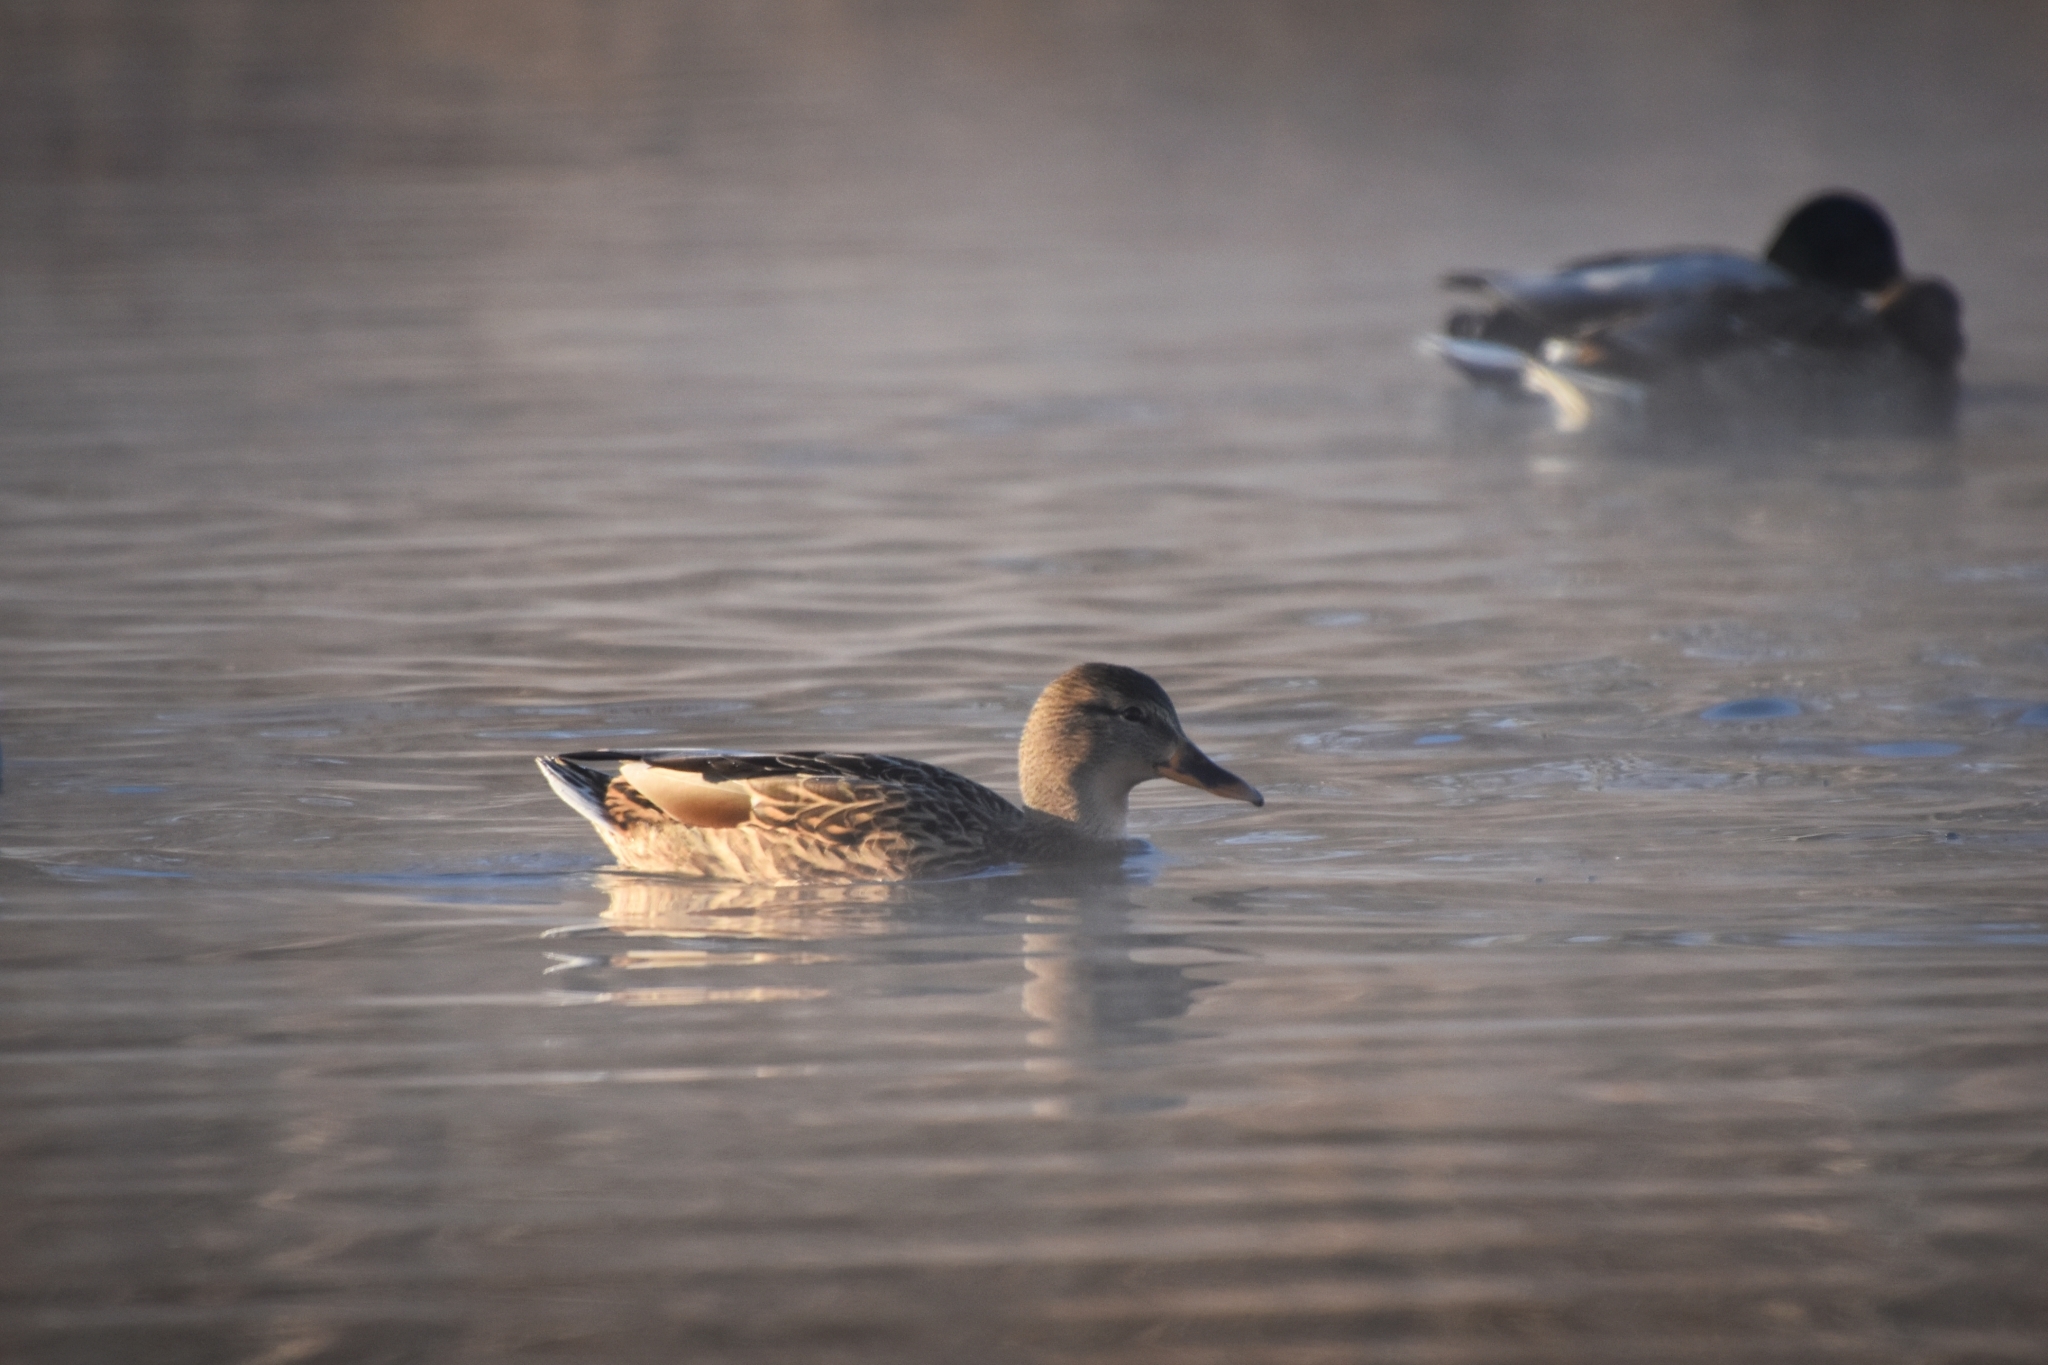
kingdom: Animalia
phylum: Chordata
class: Aves
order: Anseriformes
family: Anatidae
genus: Anas
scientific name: Anas platyrhynchos
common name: Mallard
